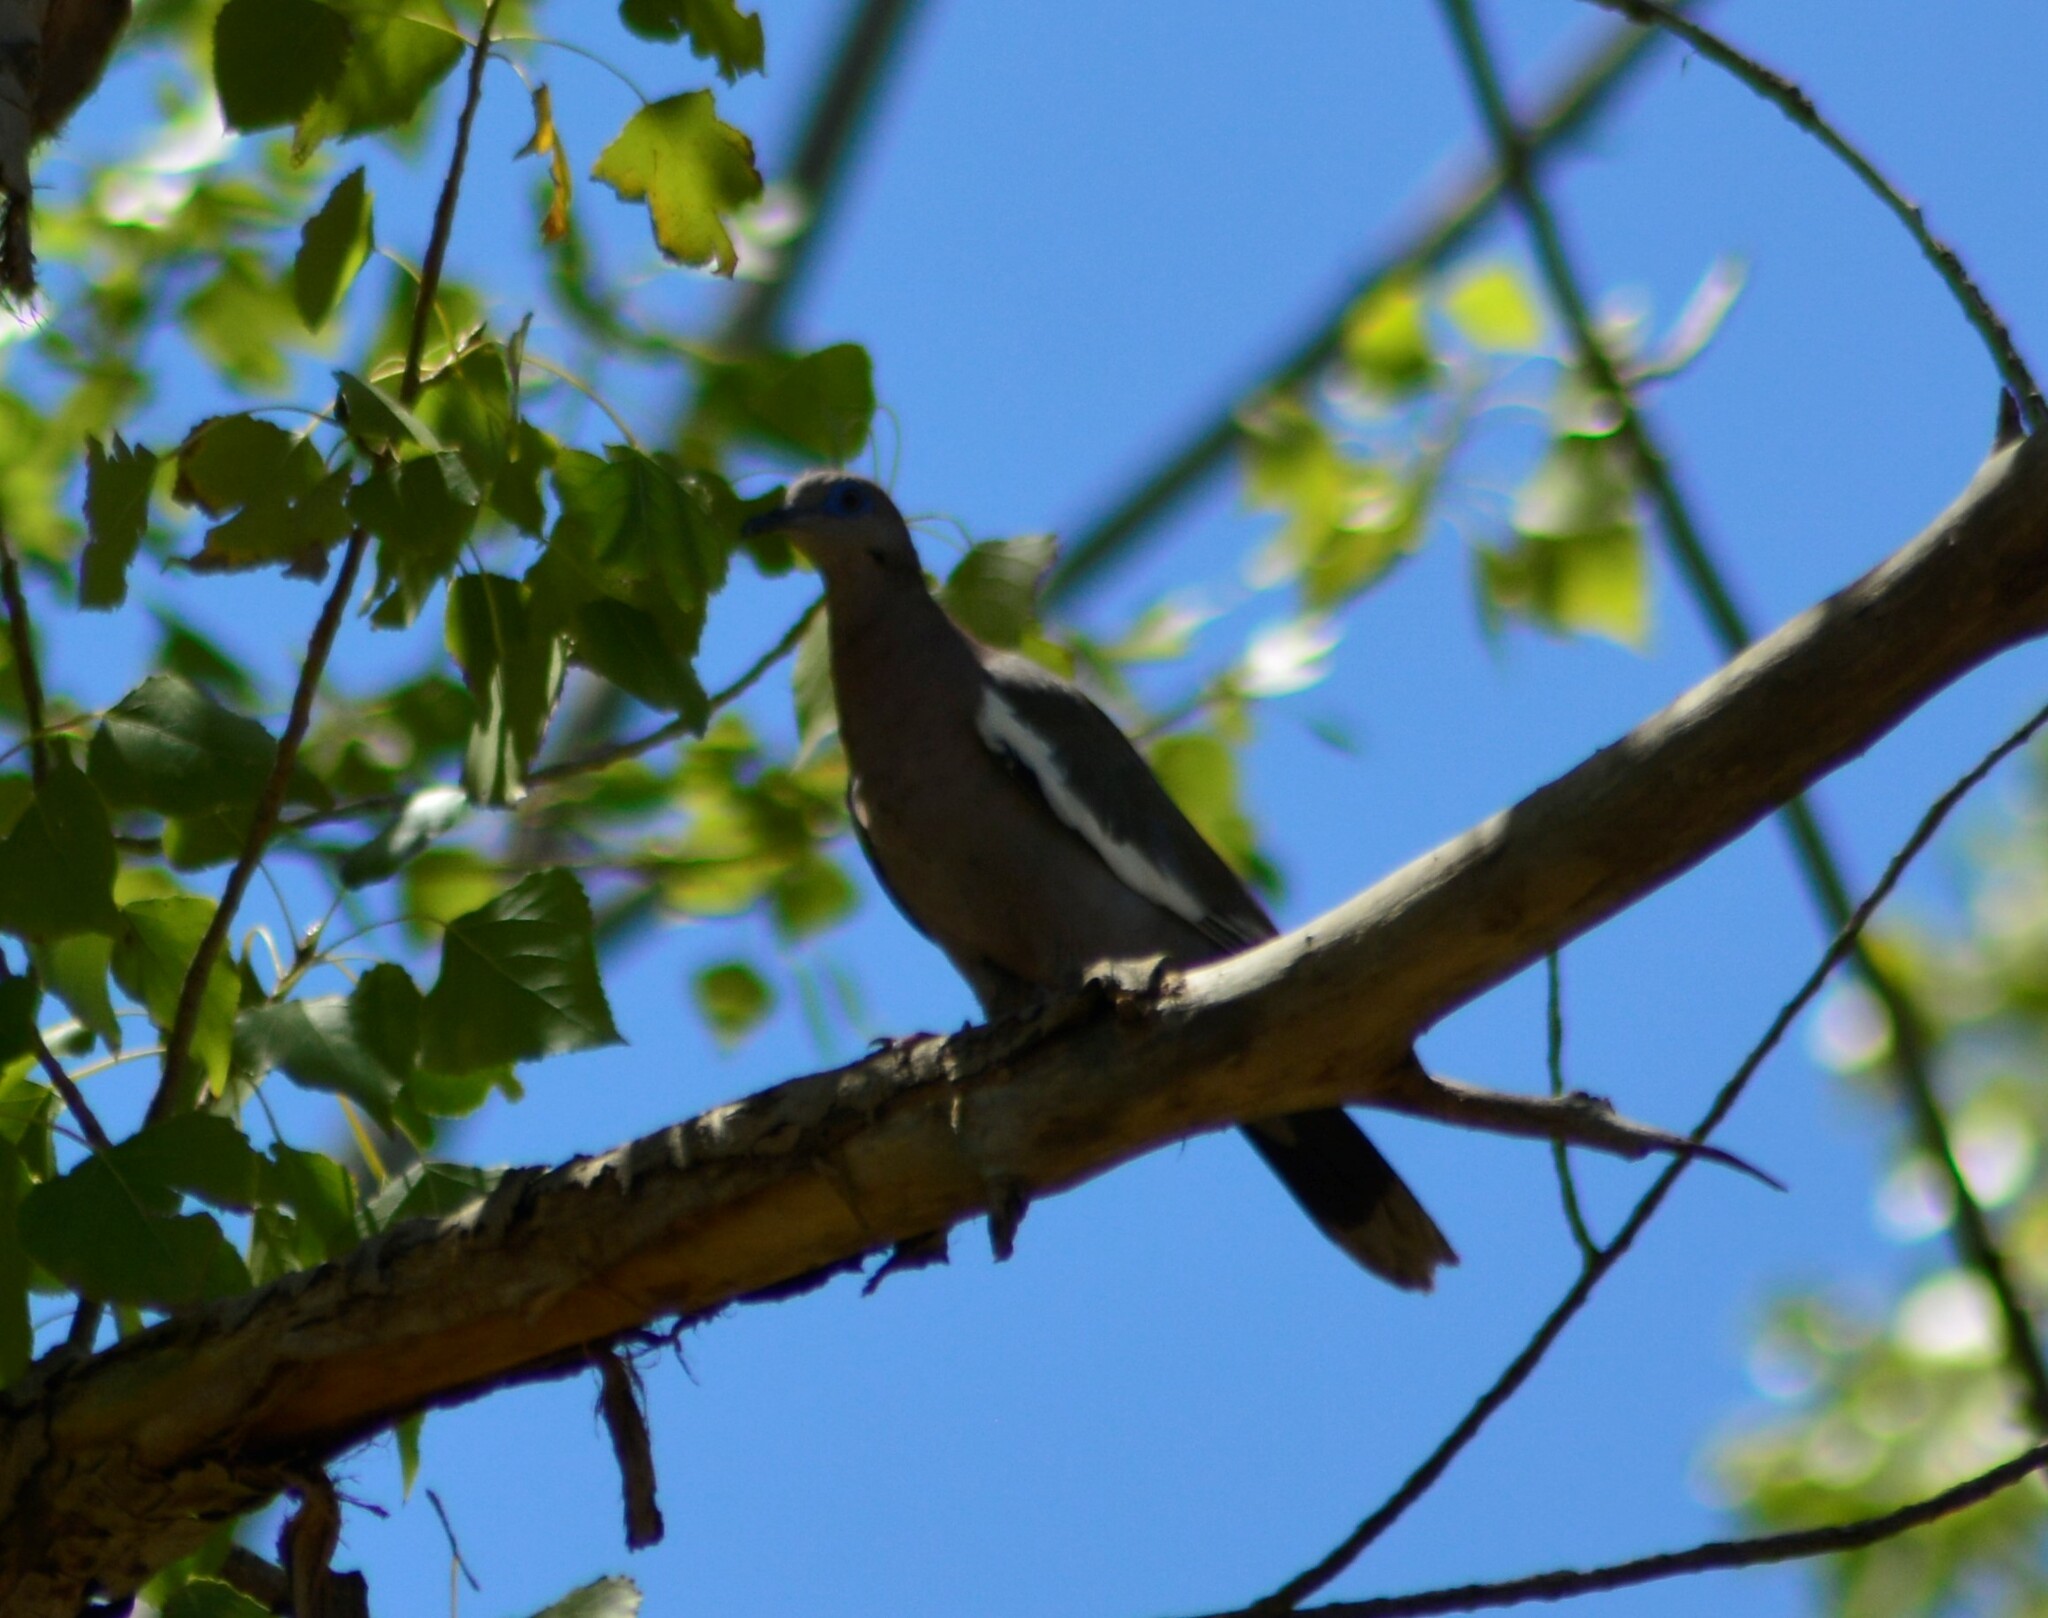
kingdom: Animalia
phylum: Chordata
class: Aves
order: Columbiformes
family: Columbidae
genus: Zenaida
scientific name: Zenaida meloda
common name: West peruvian dove
